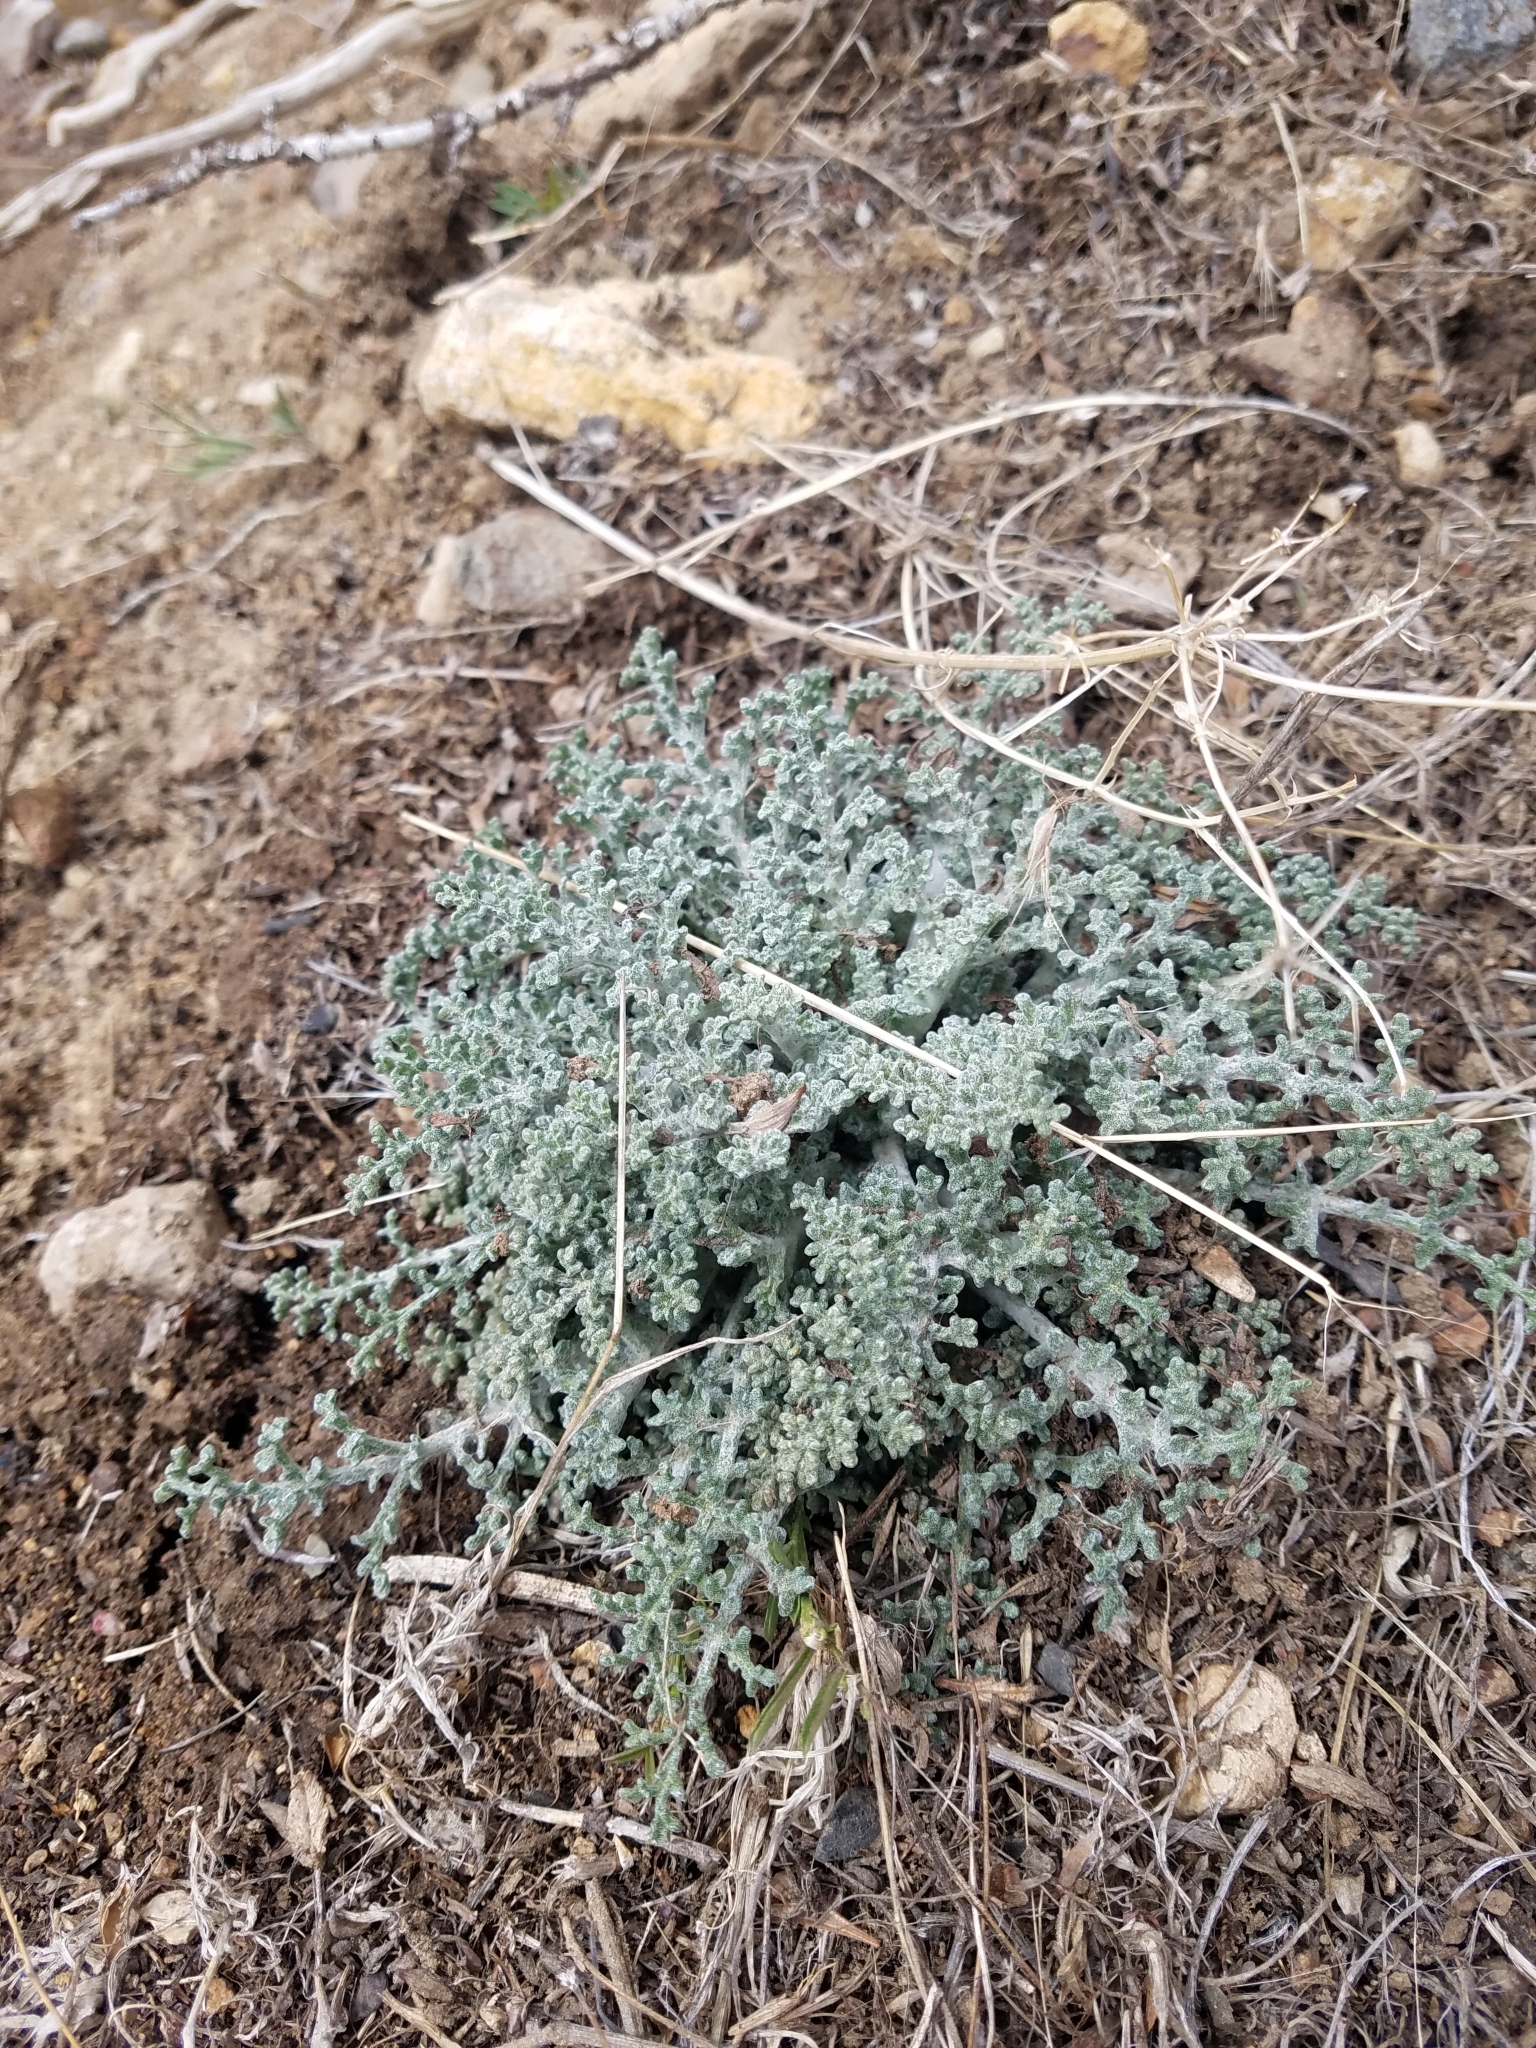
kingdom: Plantae
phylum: Tracheophyta
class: Magnoliopsida
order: Asterales
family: Asteraceae
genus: Chaenactis
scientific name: Chaenactis douglasii
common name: Hoary pincushion
